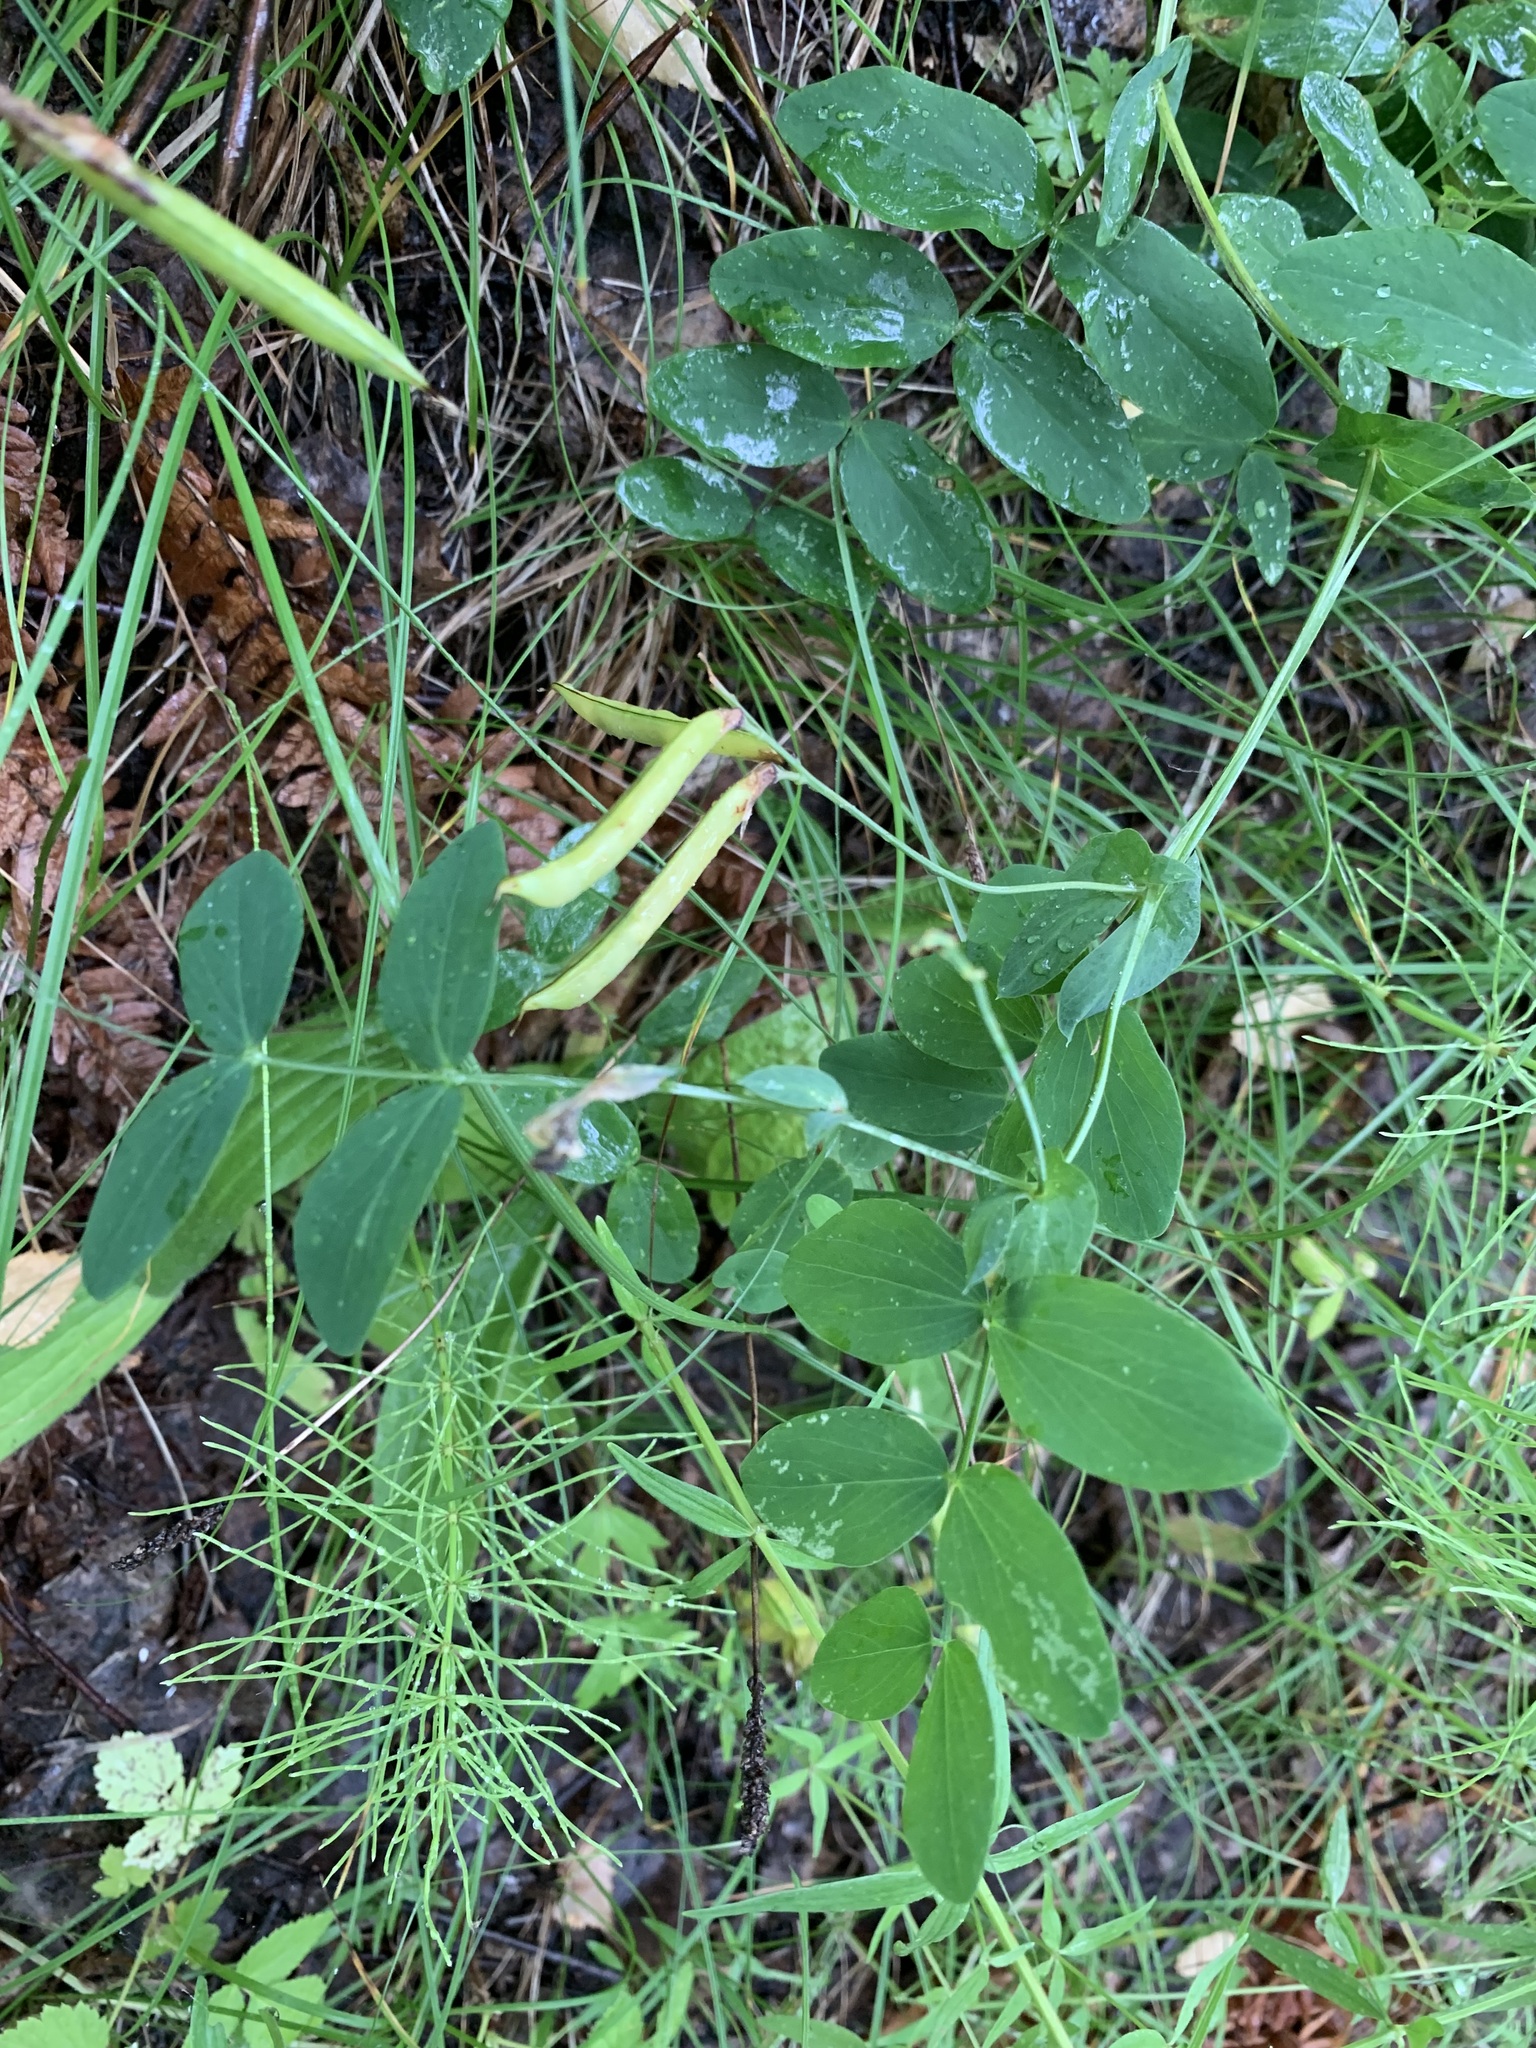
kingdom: Plantae
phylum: Tracheophyta
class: Magnoliopsida
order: Fabales
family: Fabaceae
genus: Lathyrus
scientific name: Lathyrus pisiformis
